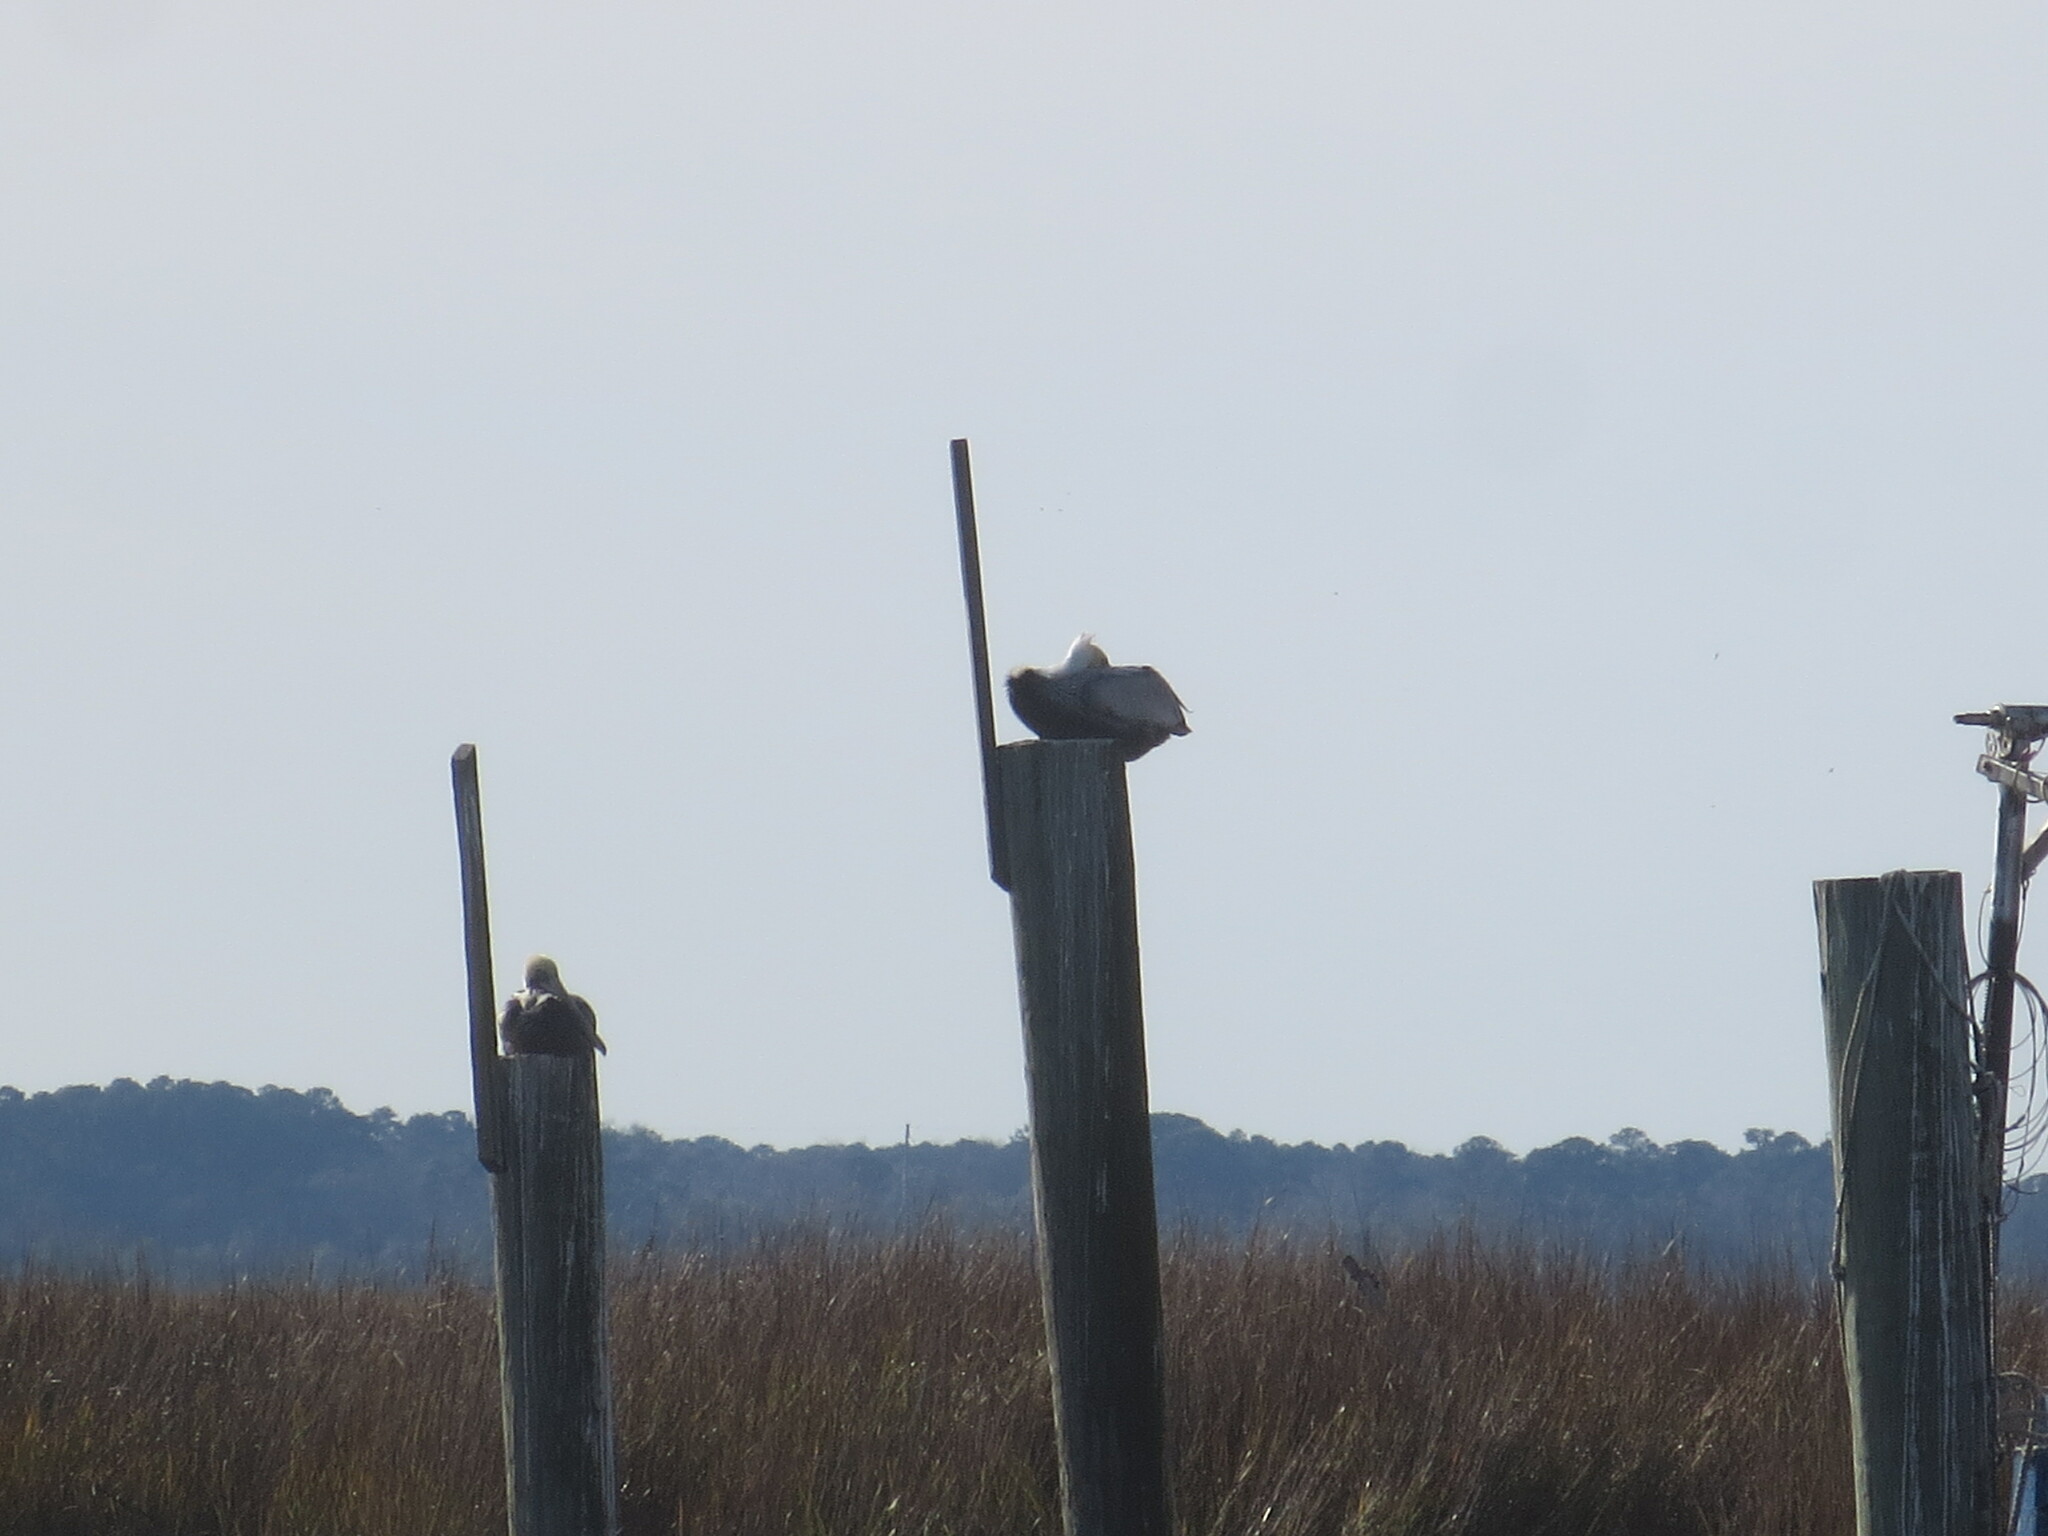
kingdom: Animalia
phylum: Chordata
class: Aves
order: Pelecaniformes
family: Pelecanidae
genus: Pelecanus
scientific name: Pelecanus occidentalis
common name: Brown pelican
